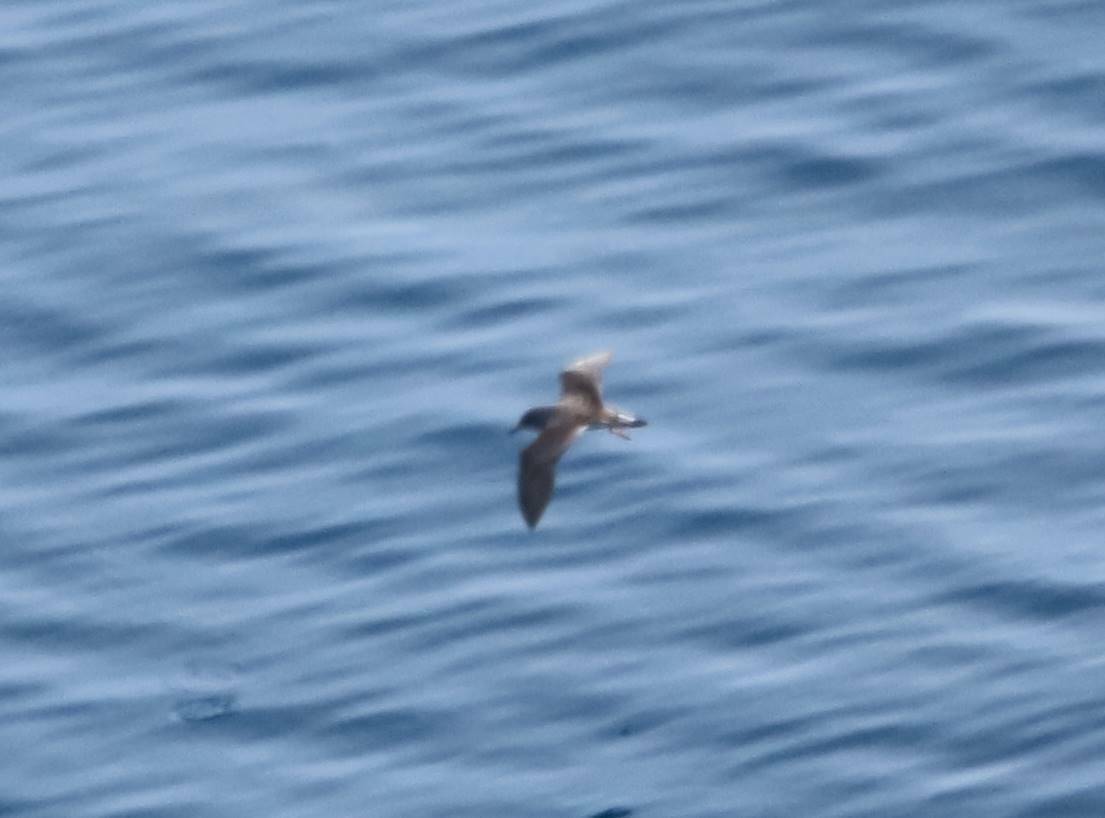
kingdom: Animalia
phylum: Chordata
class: Aves
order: Procellariiformes
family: Procellariidae
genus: Calonectris
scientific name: Calonectris diomedea
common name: Cory's shearwater
